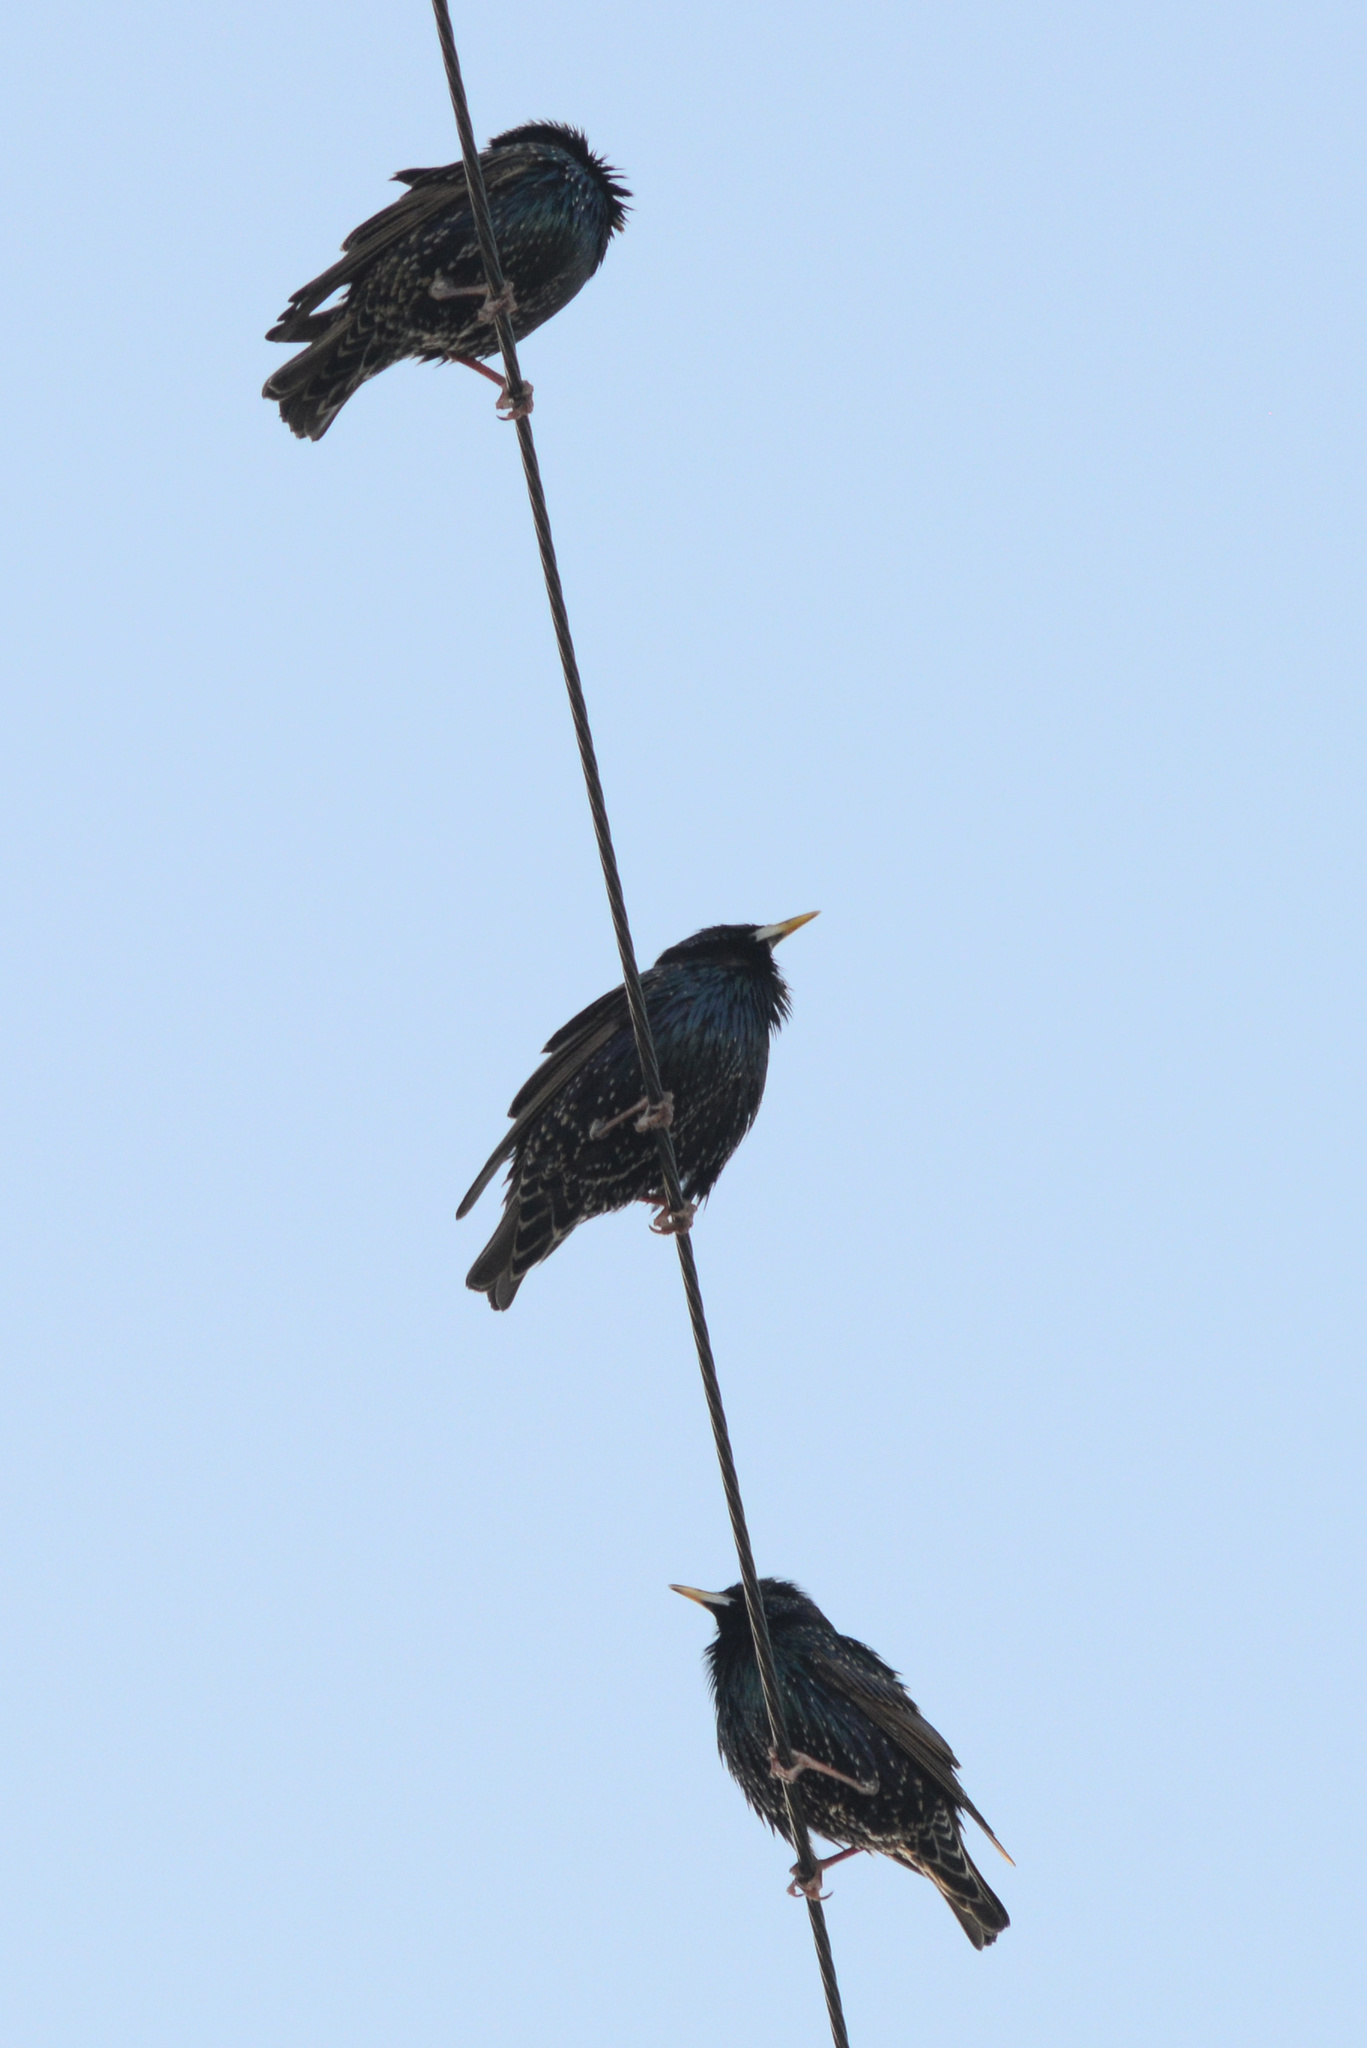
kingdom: Animalia
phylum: Chordata
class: Aves
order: Passeriformes
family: Sturnidae
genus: Sturnus
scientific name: Sturnus vulgaris
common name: Common starling
